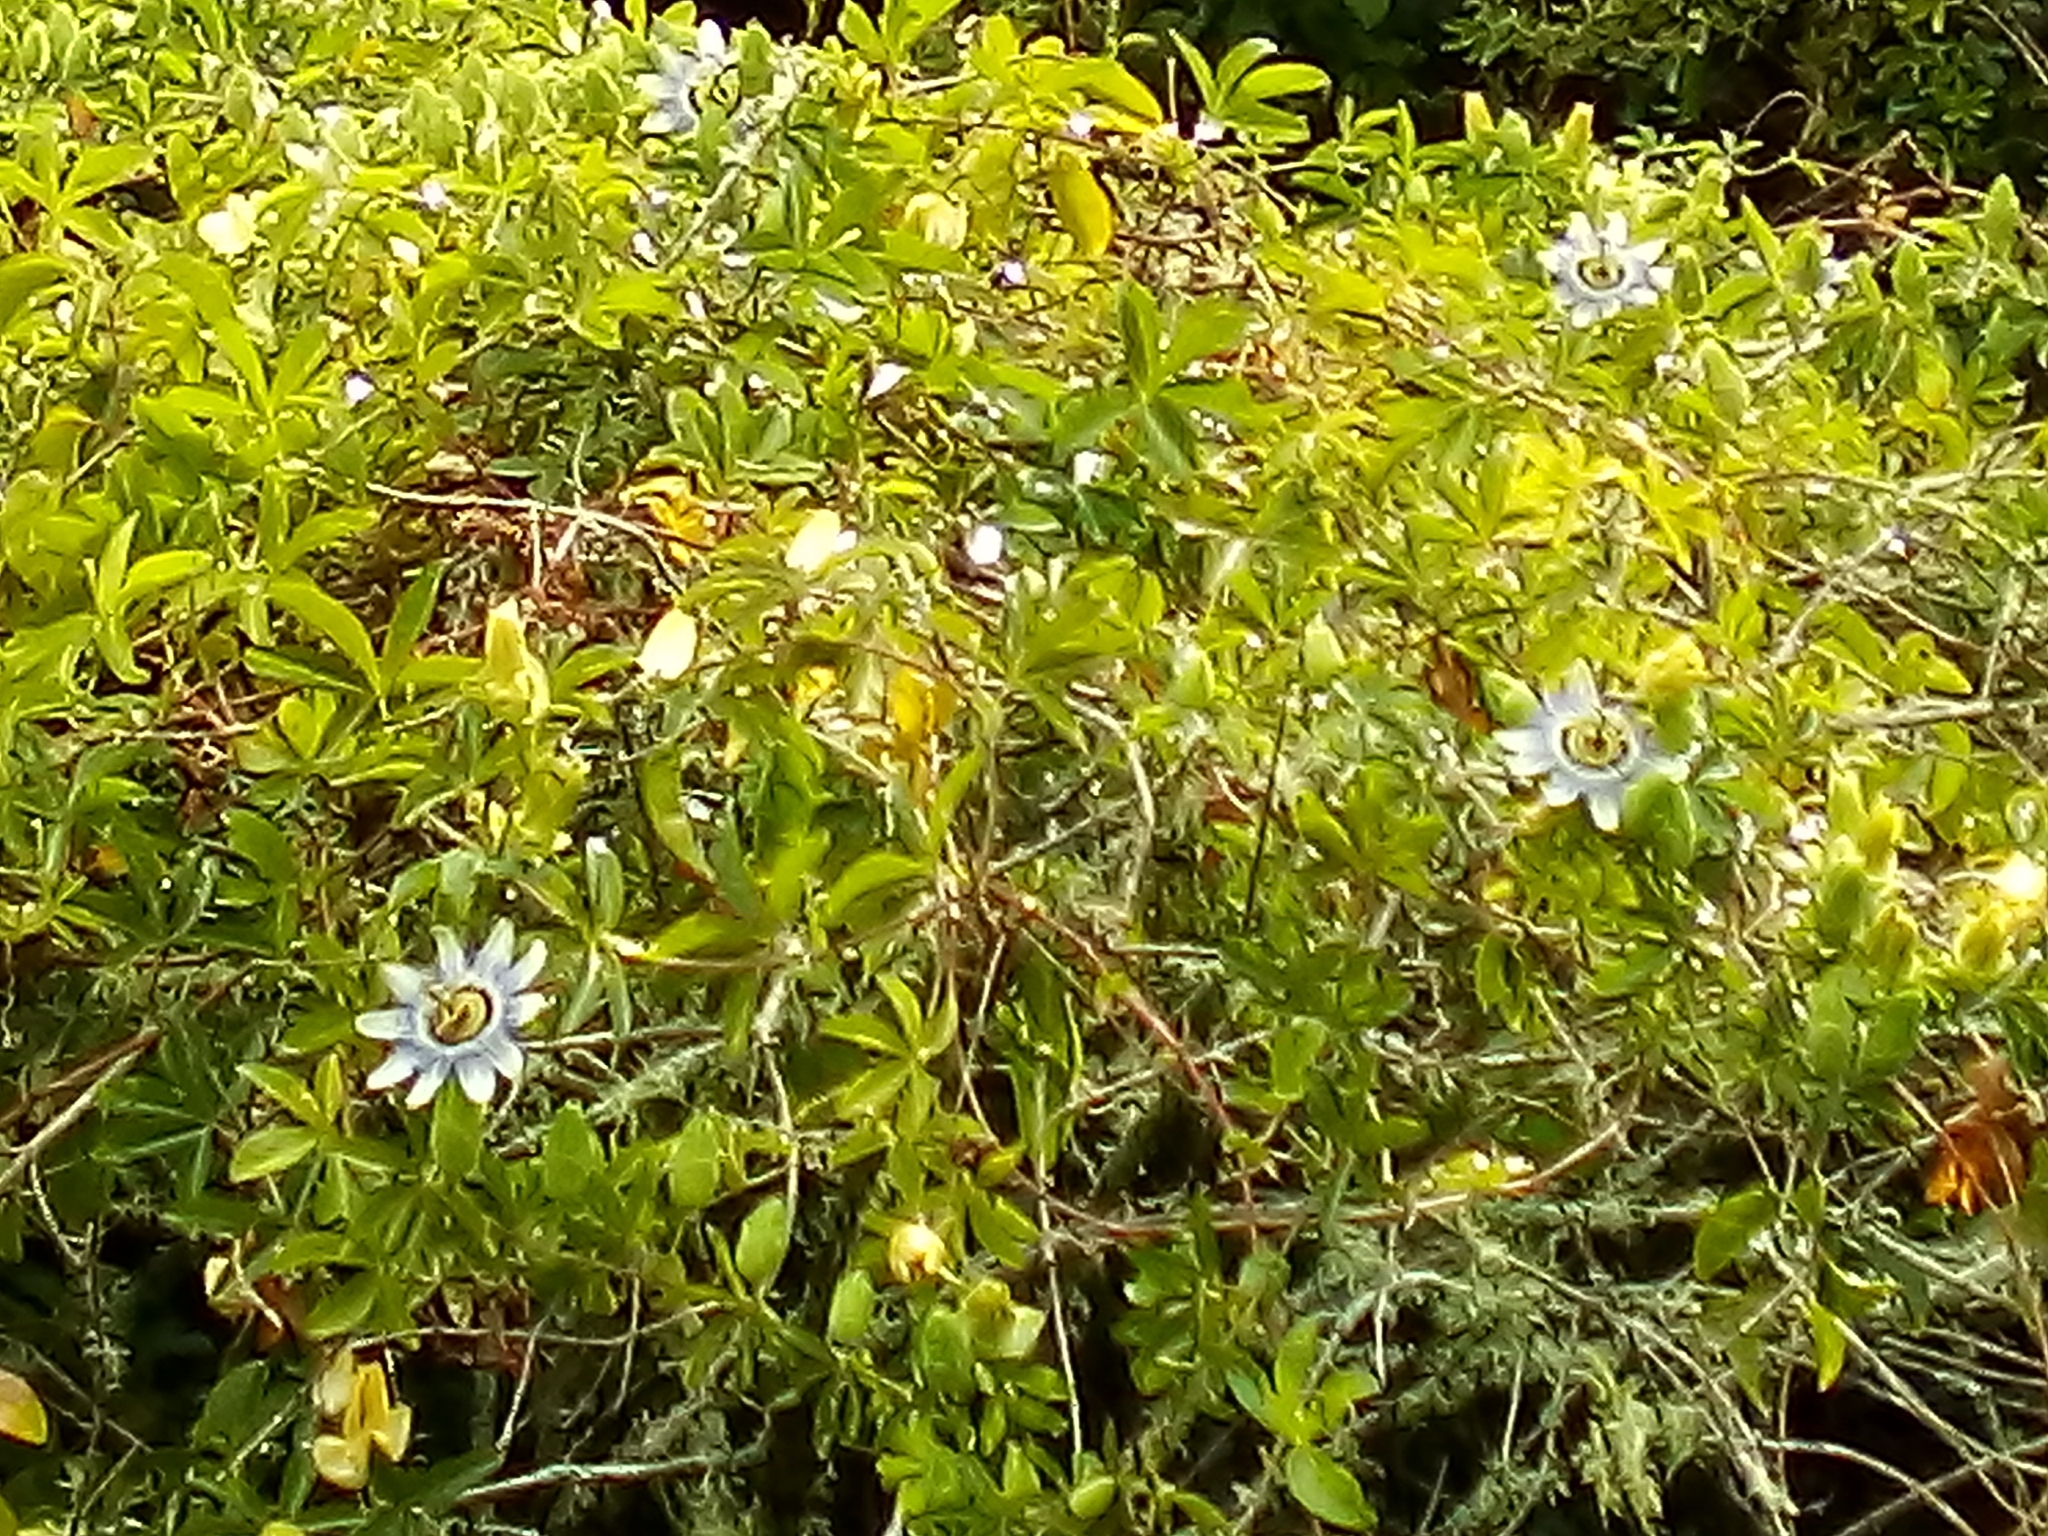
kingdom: Plantae
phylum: Tracheophyta
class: Magnoliopsida
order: Malpighiales
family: Passifloraceae
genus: Passiflora
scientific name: Passiflora caerulea
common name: Blue passionflower
